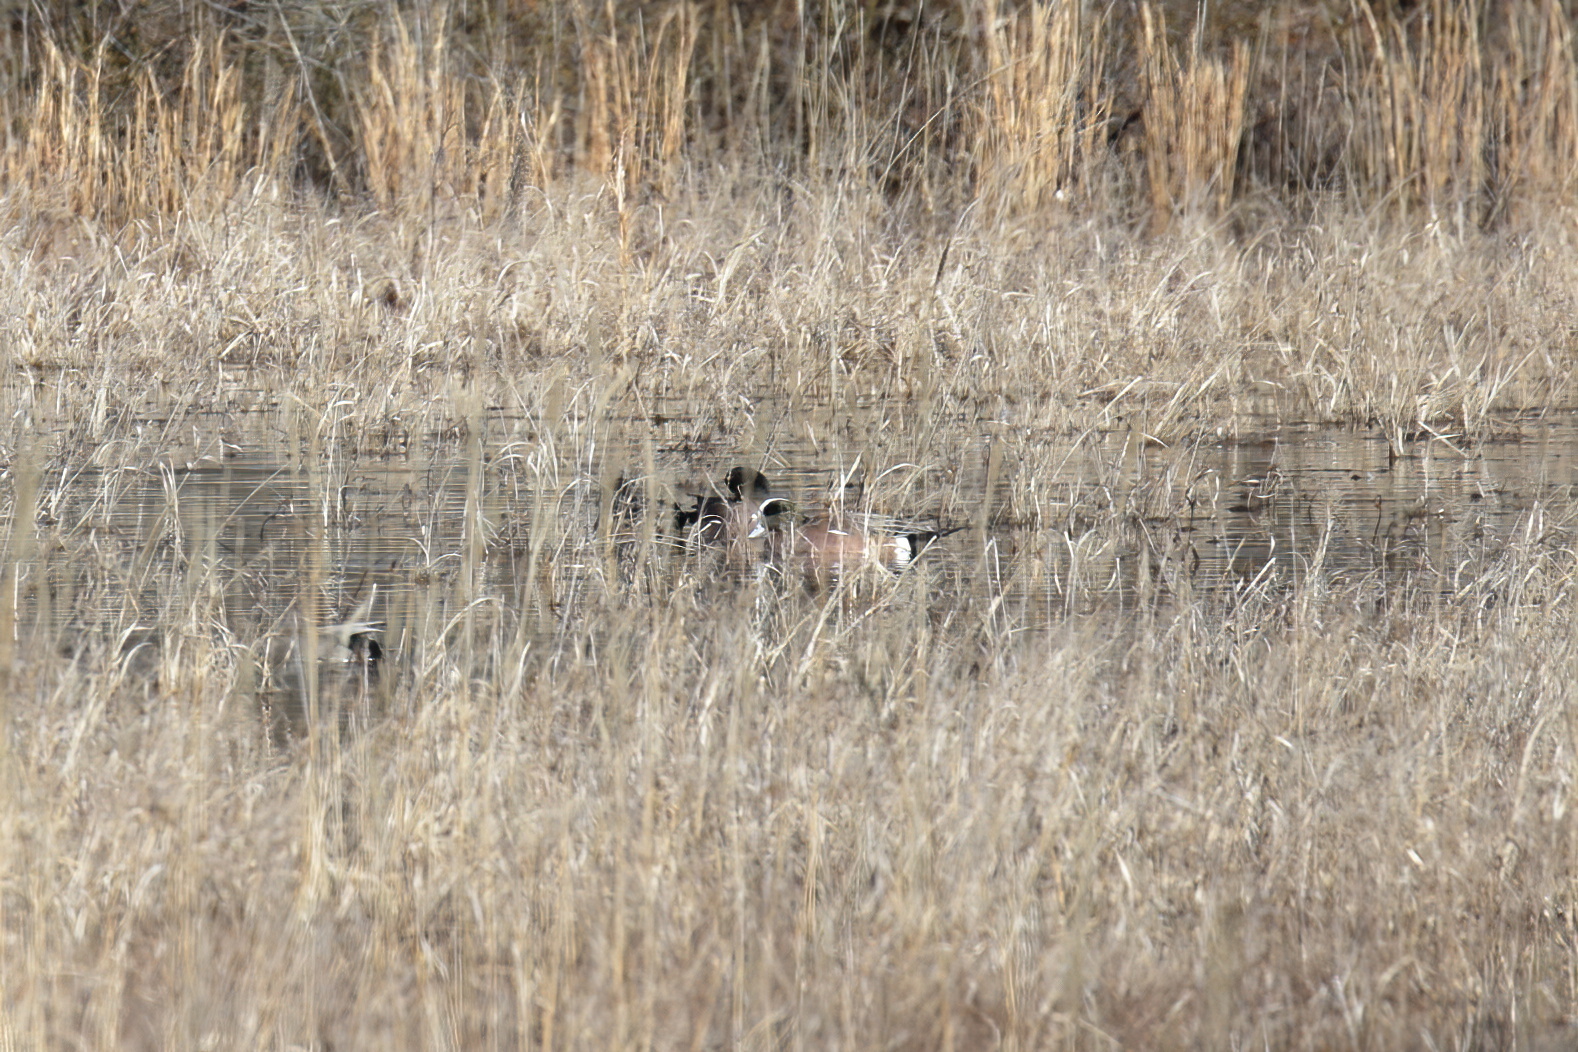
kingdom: Animalia
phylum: Chordata
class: Aves
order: Anseriformes
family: Anatidae
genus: Mareca
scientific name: Mareca americana
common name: American wigeon
